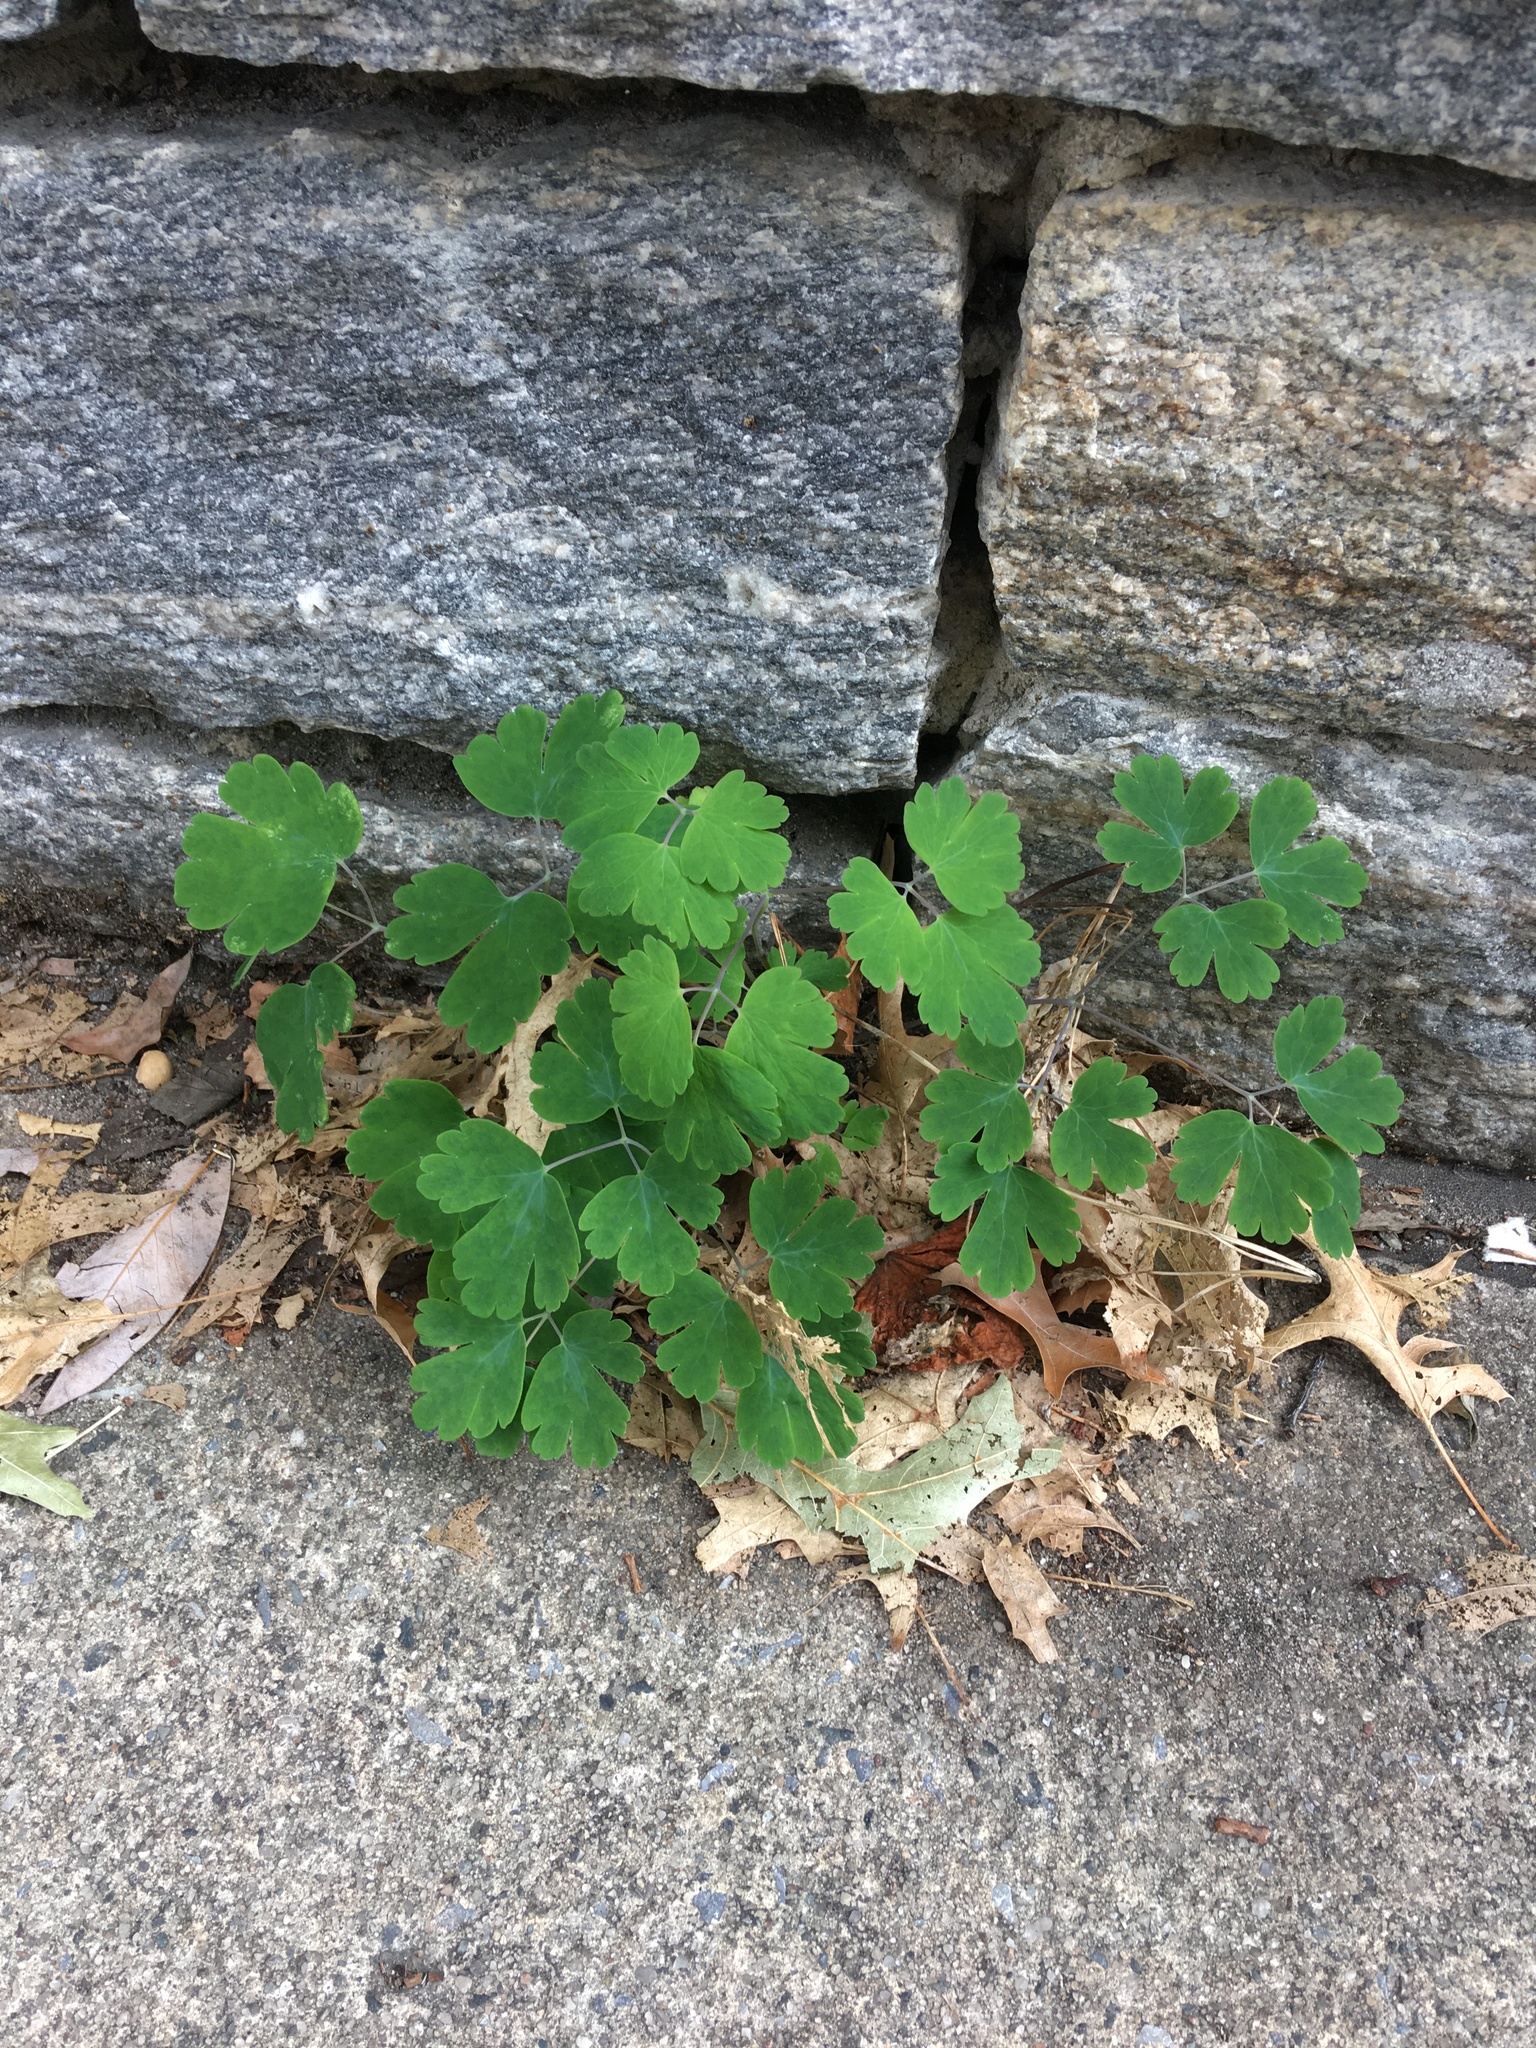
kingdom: Plantae
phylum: Tracheophyta
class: Magnoliopsida
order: Ranunculales
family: Ranunculaceae
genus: Aquilegia
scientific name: Aquilegia canadensis
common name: American columbine
